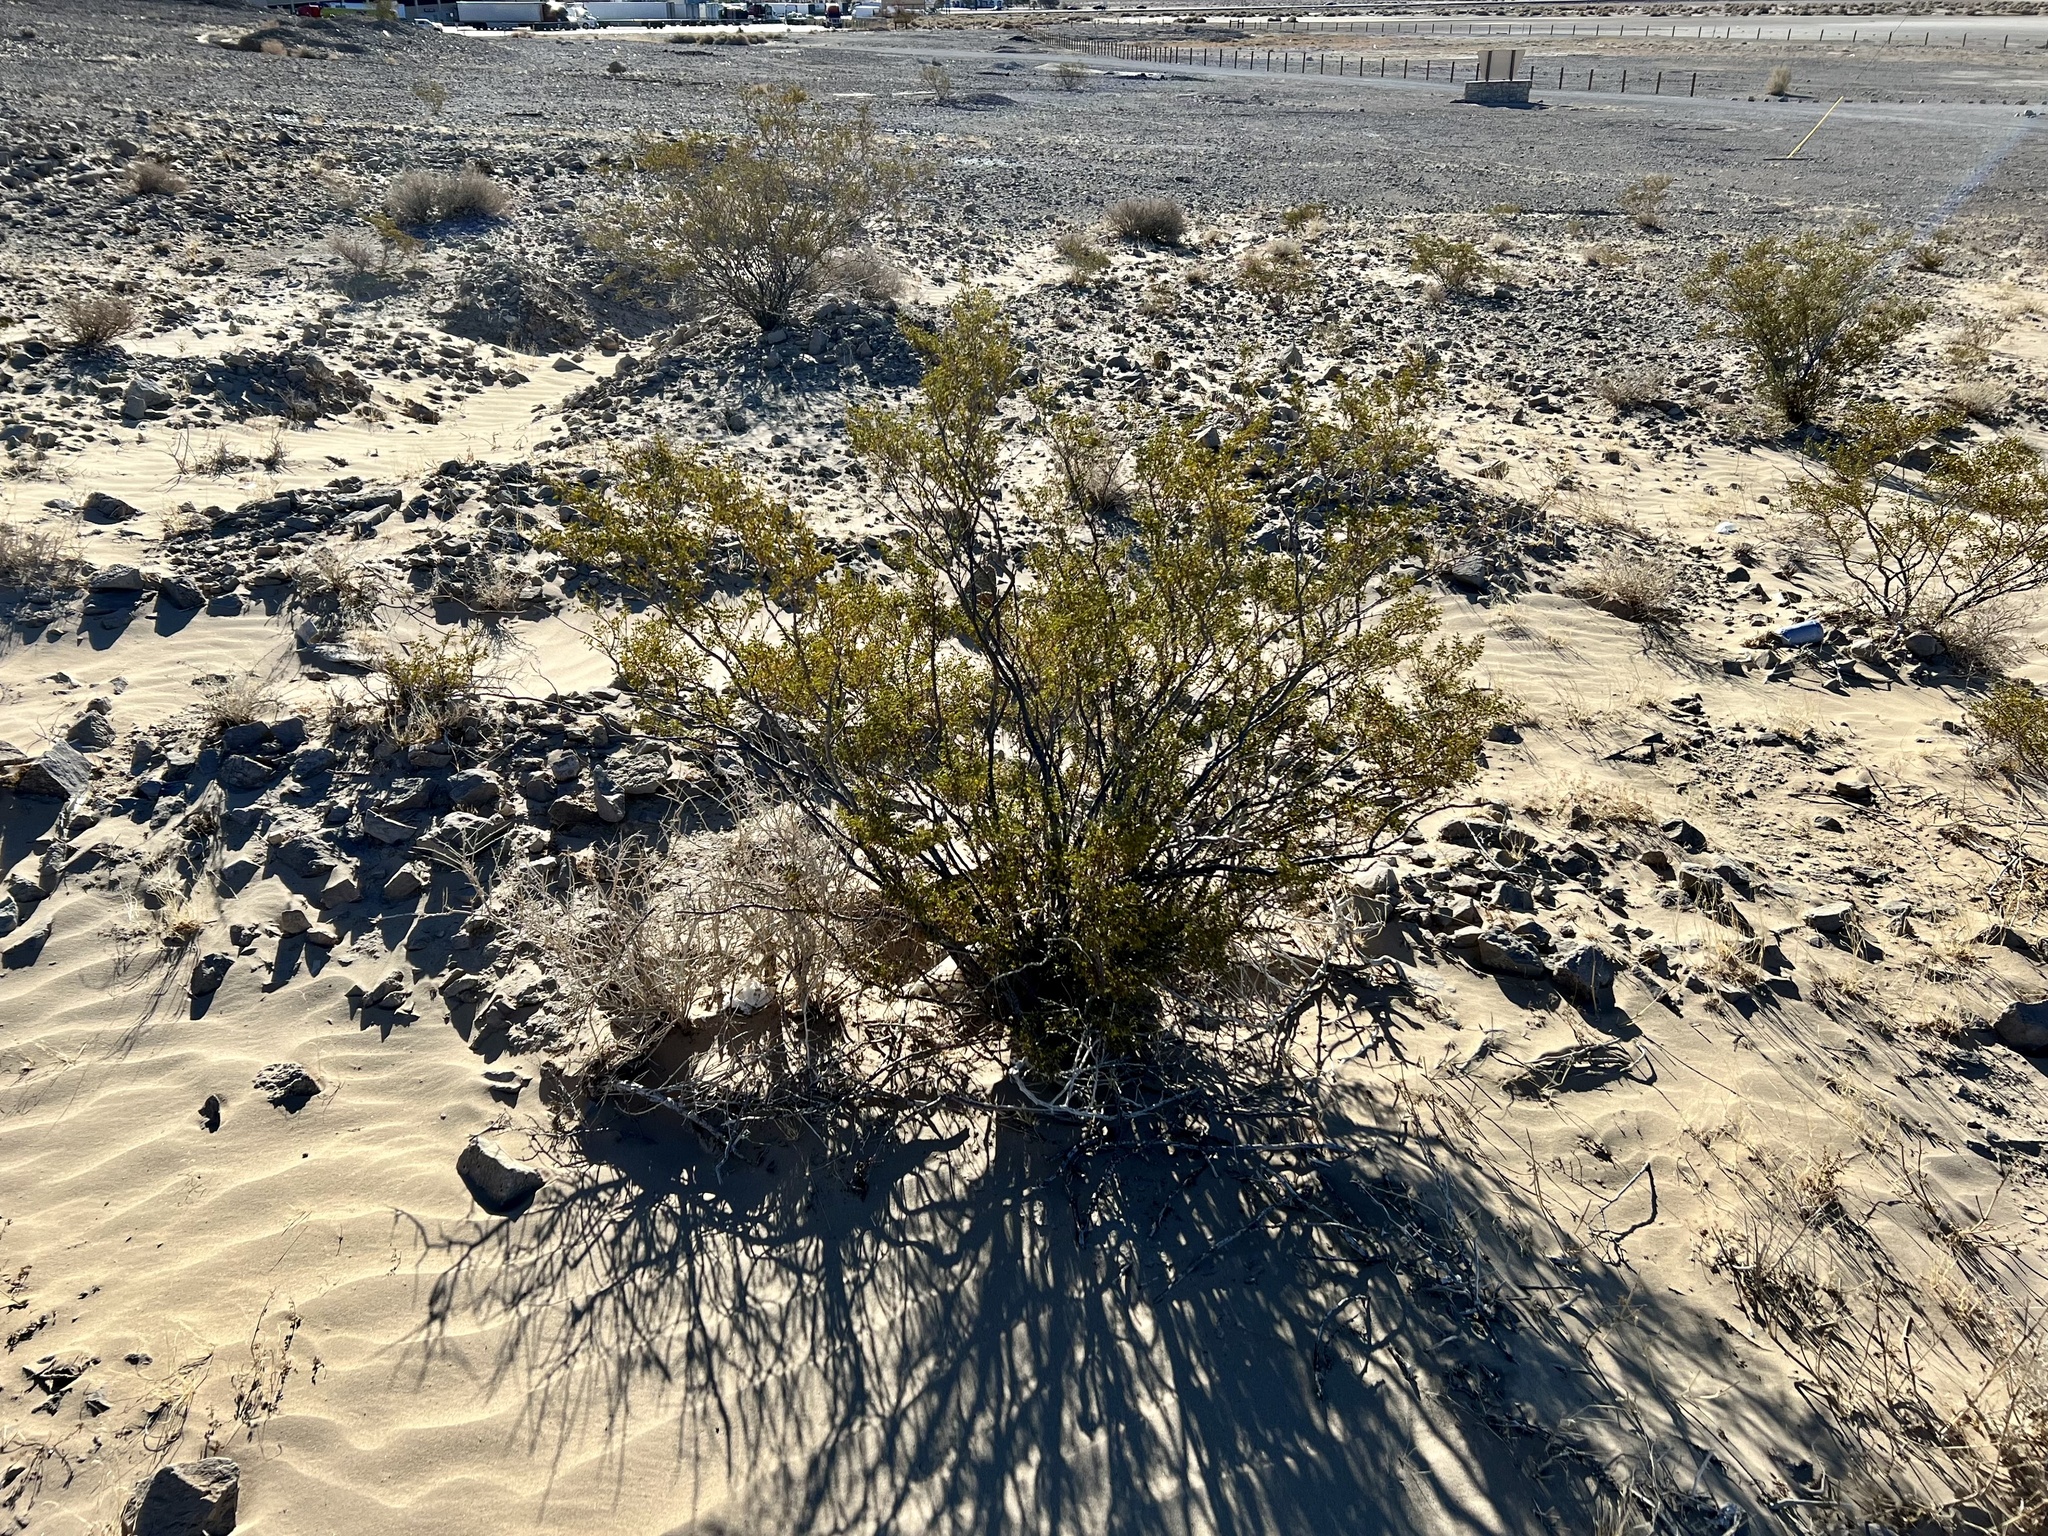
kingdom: Plantae
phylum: Tracheophyta
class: Magnoliopsida
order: Zygophyllales
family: Zygophyllaceae
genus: Larrea
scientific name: Larrea tridentata
